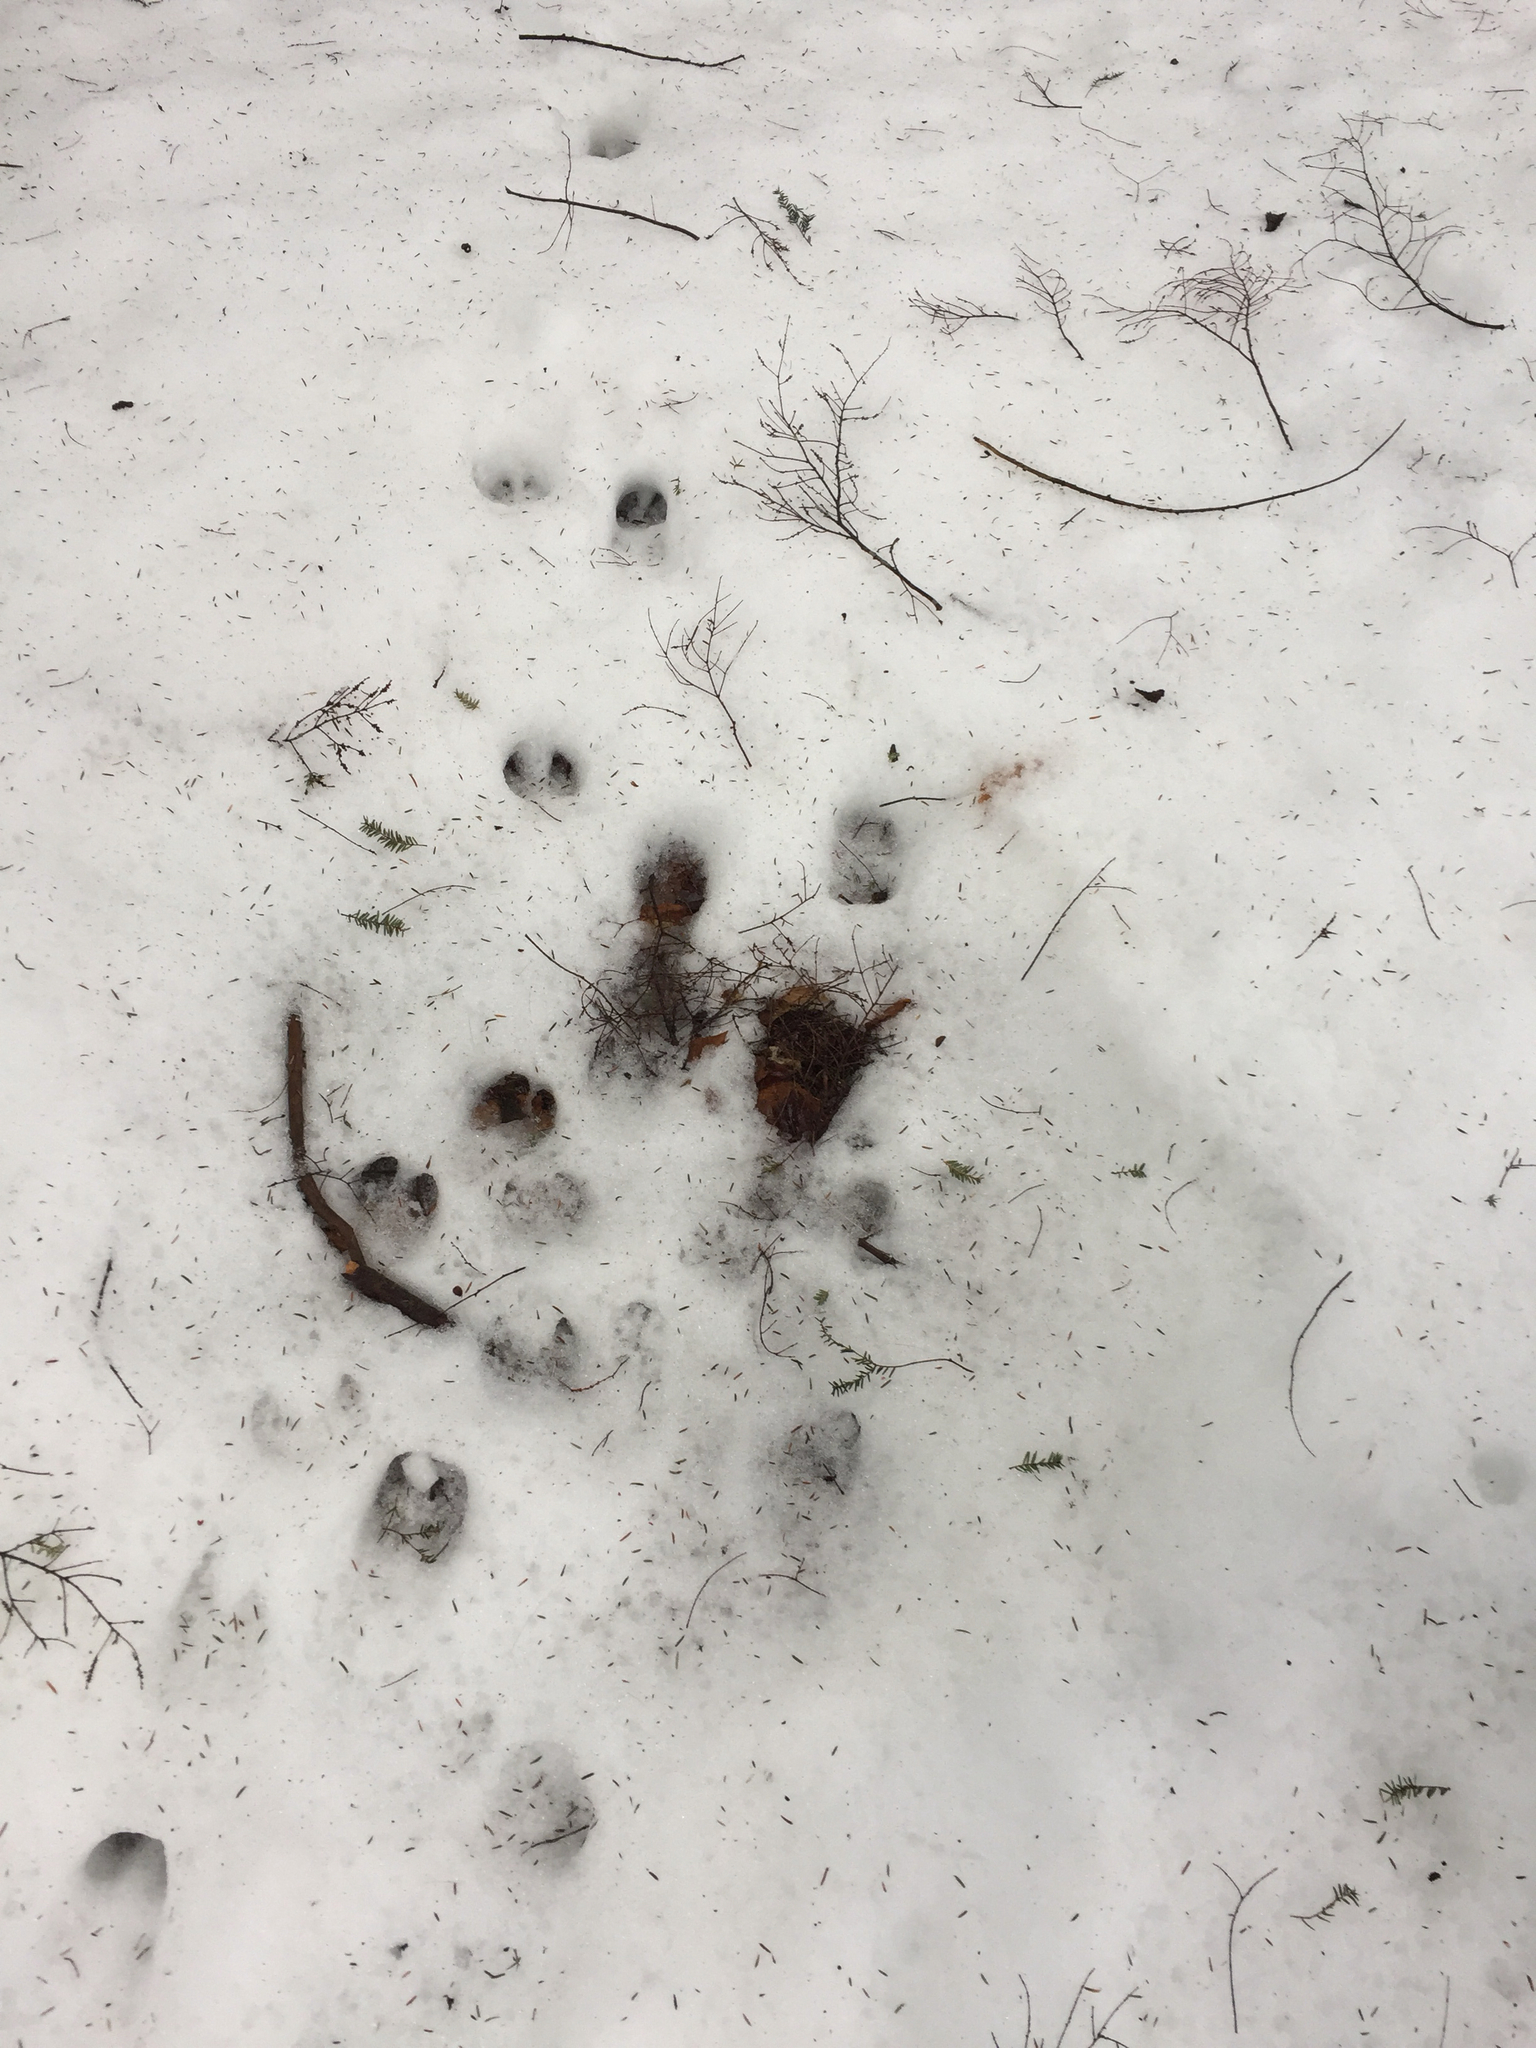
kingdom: Animalia
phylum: Chordata
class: Mammalia
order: Artiodactyla
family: Cervidae
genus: Odocoileus
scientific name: Odocoileus virginianus
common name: White-tailed deer
